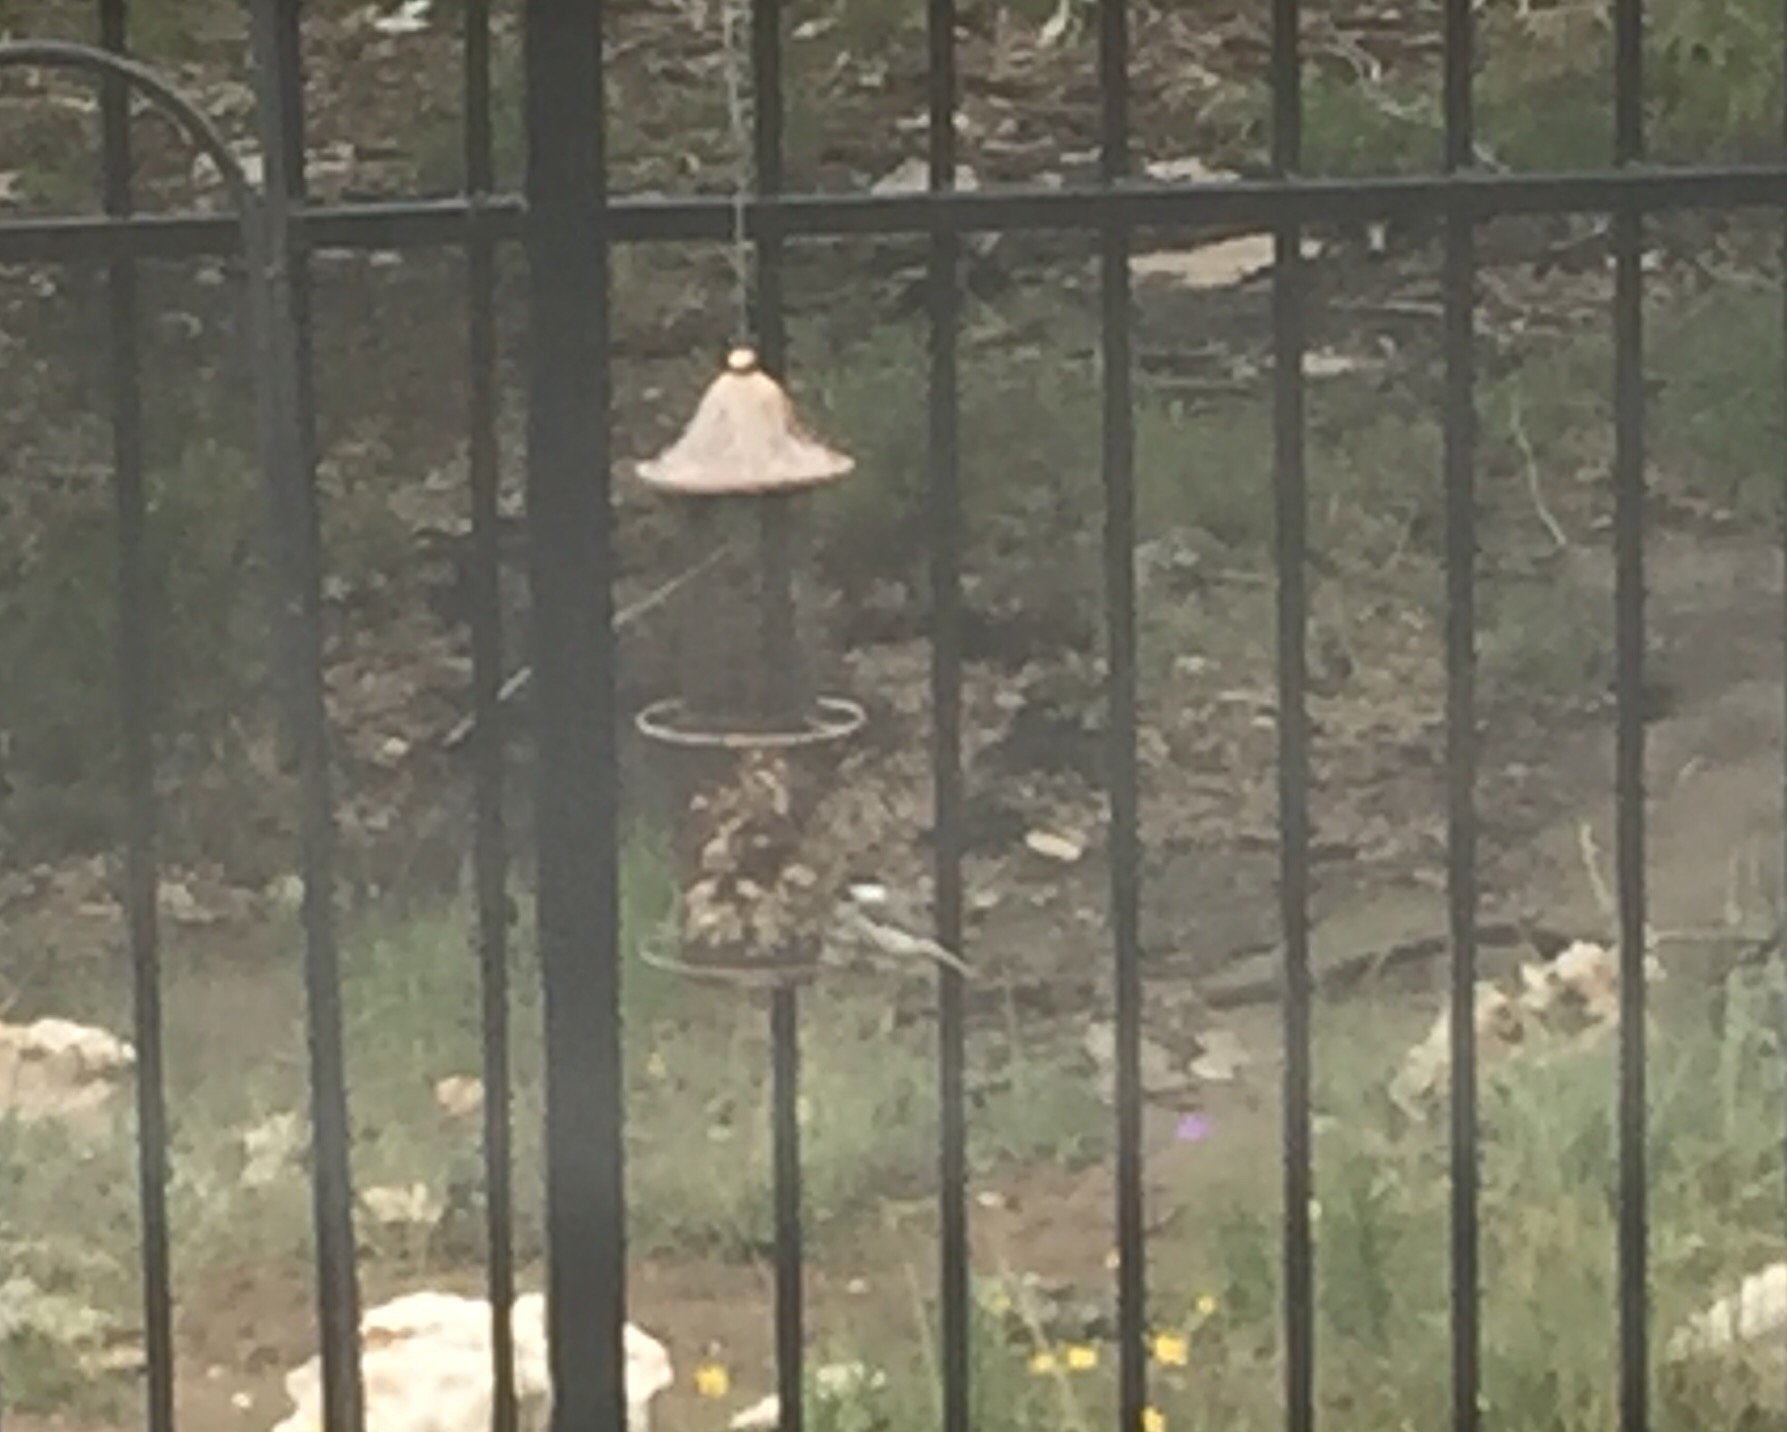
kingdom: Animalia
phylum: Chordata
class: Aves
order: Passeriformes
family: Paridae
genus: Poecile
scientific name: Poecile carolinensis
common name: Carolina chickadee
